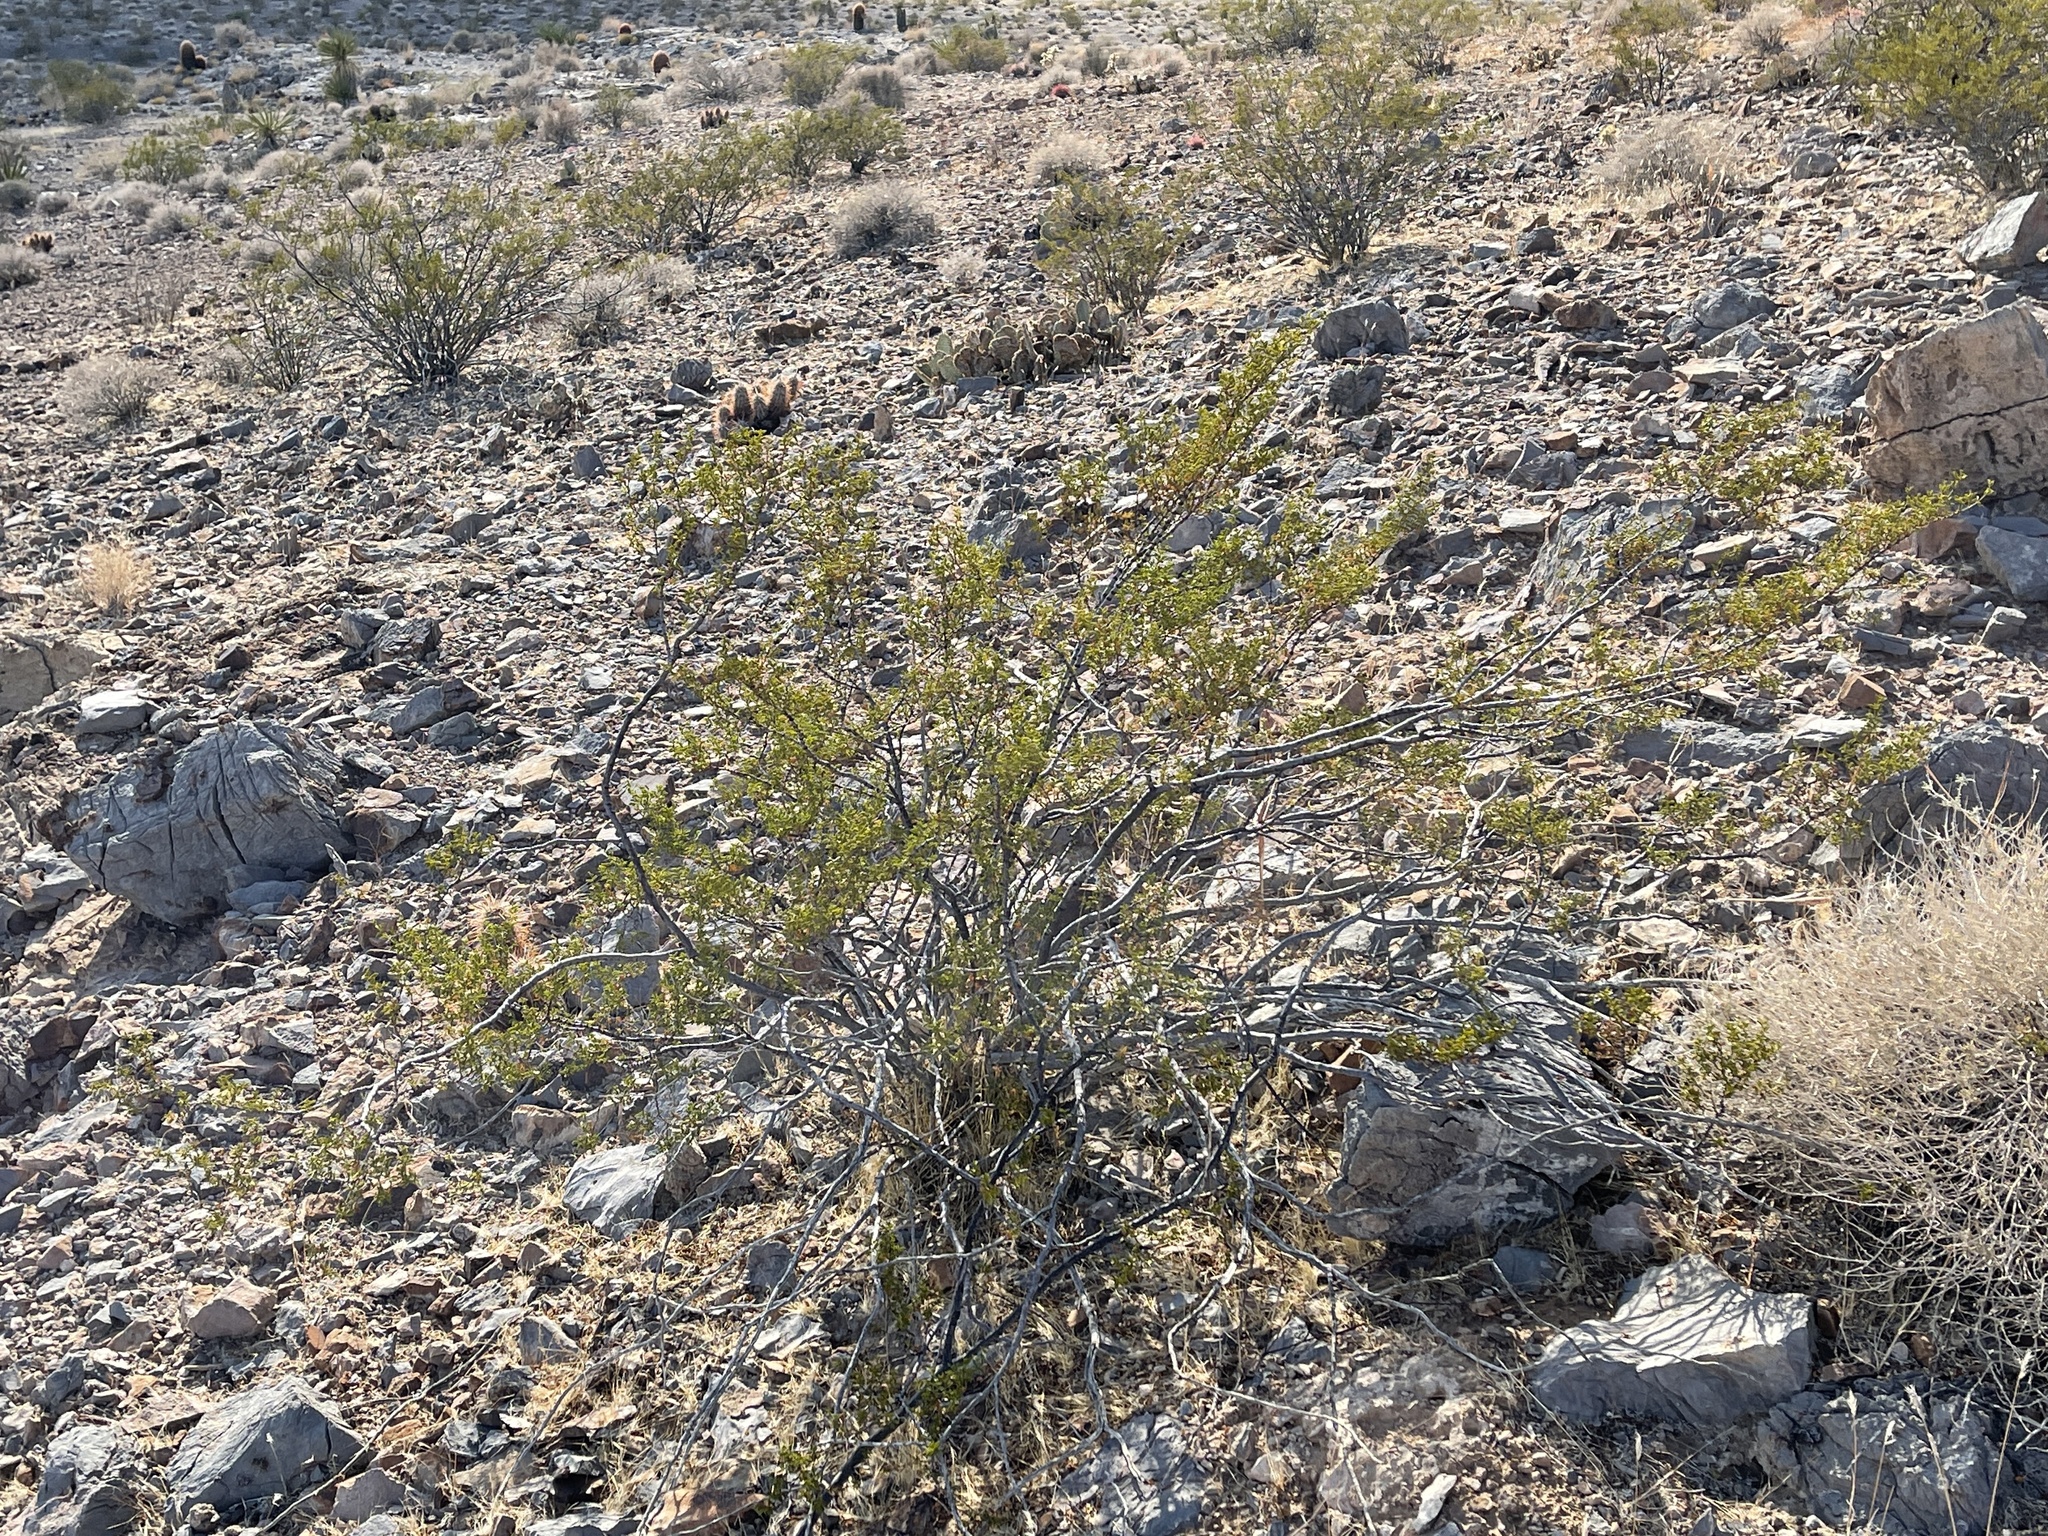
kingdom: Plantae
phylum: Tracheophyta
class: Magnoliopsida
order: Zygophyllales
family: Zygophyllaceae
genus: Larrea
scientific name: Larrea tridentata
